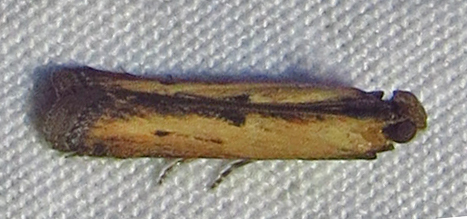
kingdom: Animalia
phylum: Arthropoda
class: Insecta
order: Lepidoptera
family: Pyralidae
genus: Elasmopalpus
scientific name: Elasmopalpus lignosella
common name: Lesser cornstalk borer
